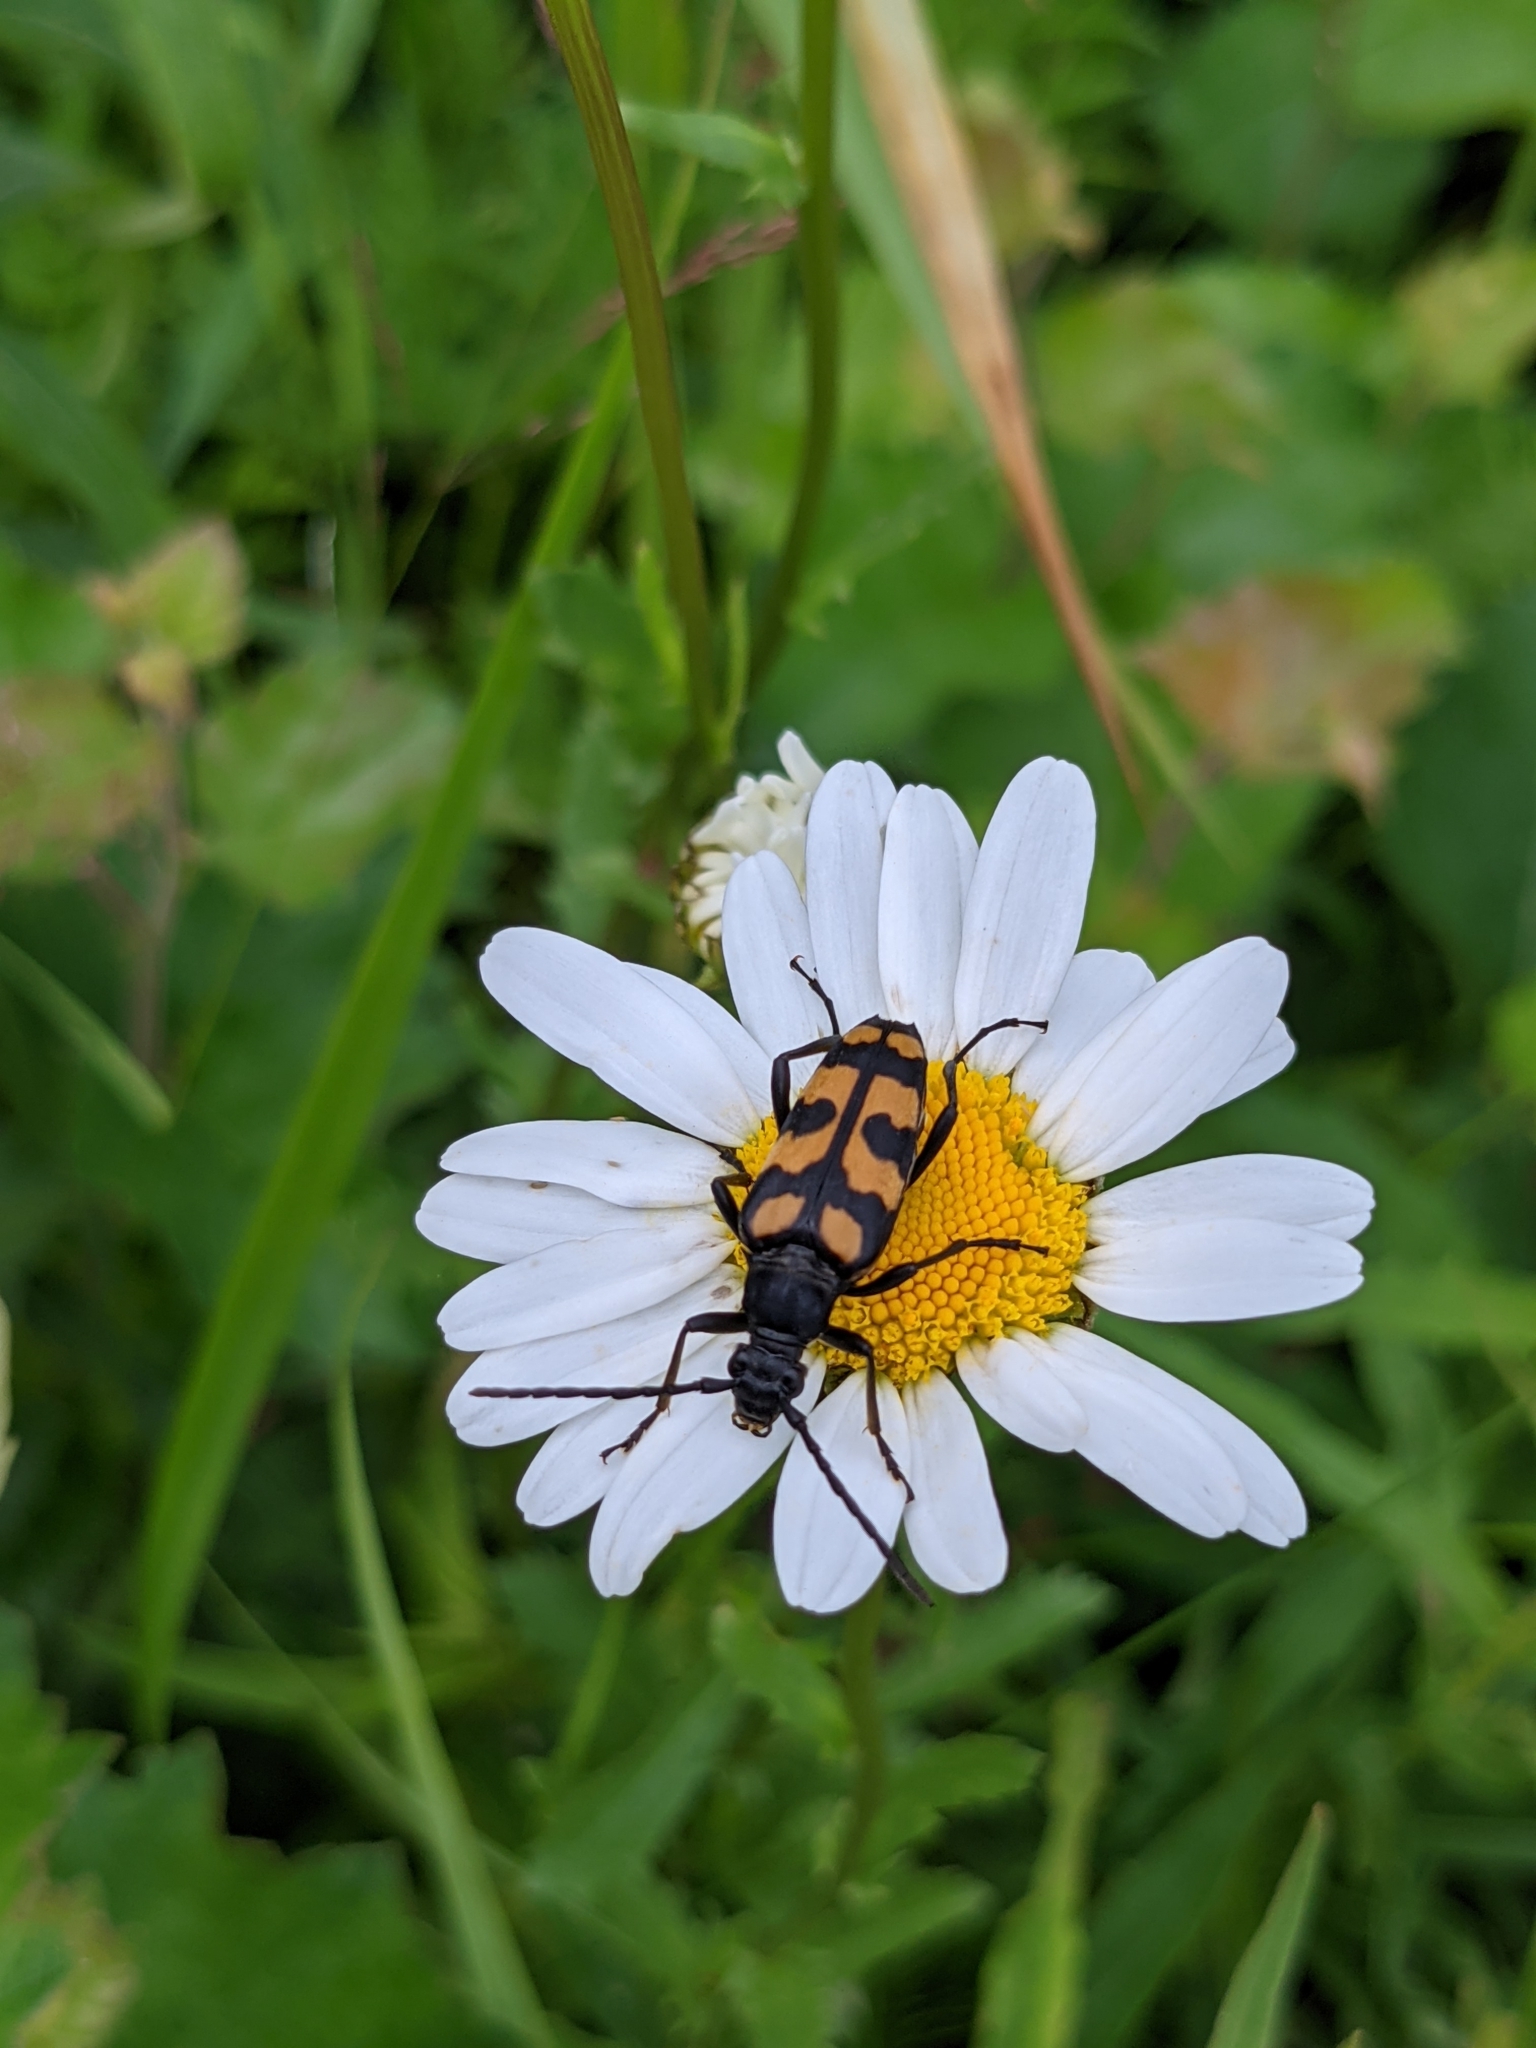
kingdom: Animalia
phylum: Arthropoda
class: Insecta
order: Coleoptera
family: Cerambycidae
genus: Leptura
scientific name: Leptura quadrifasciata
